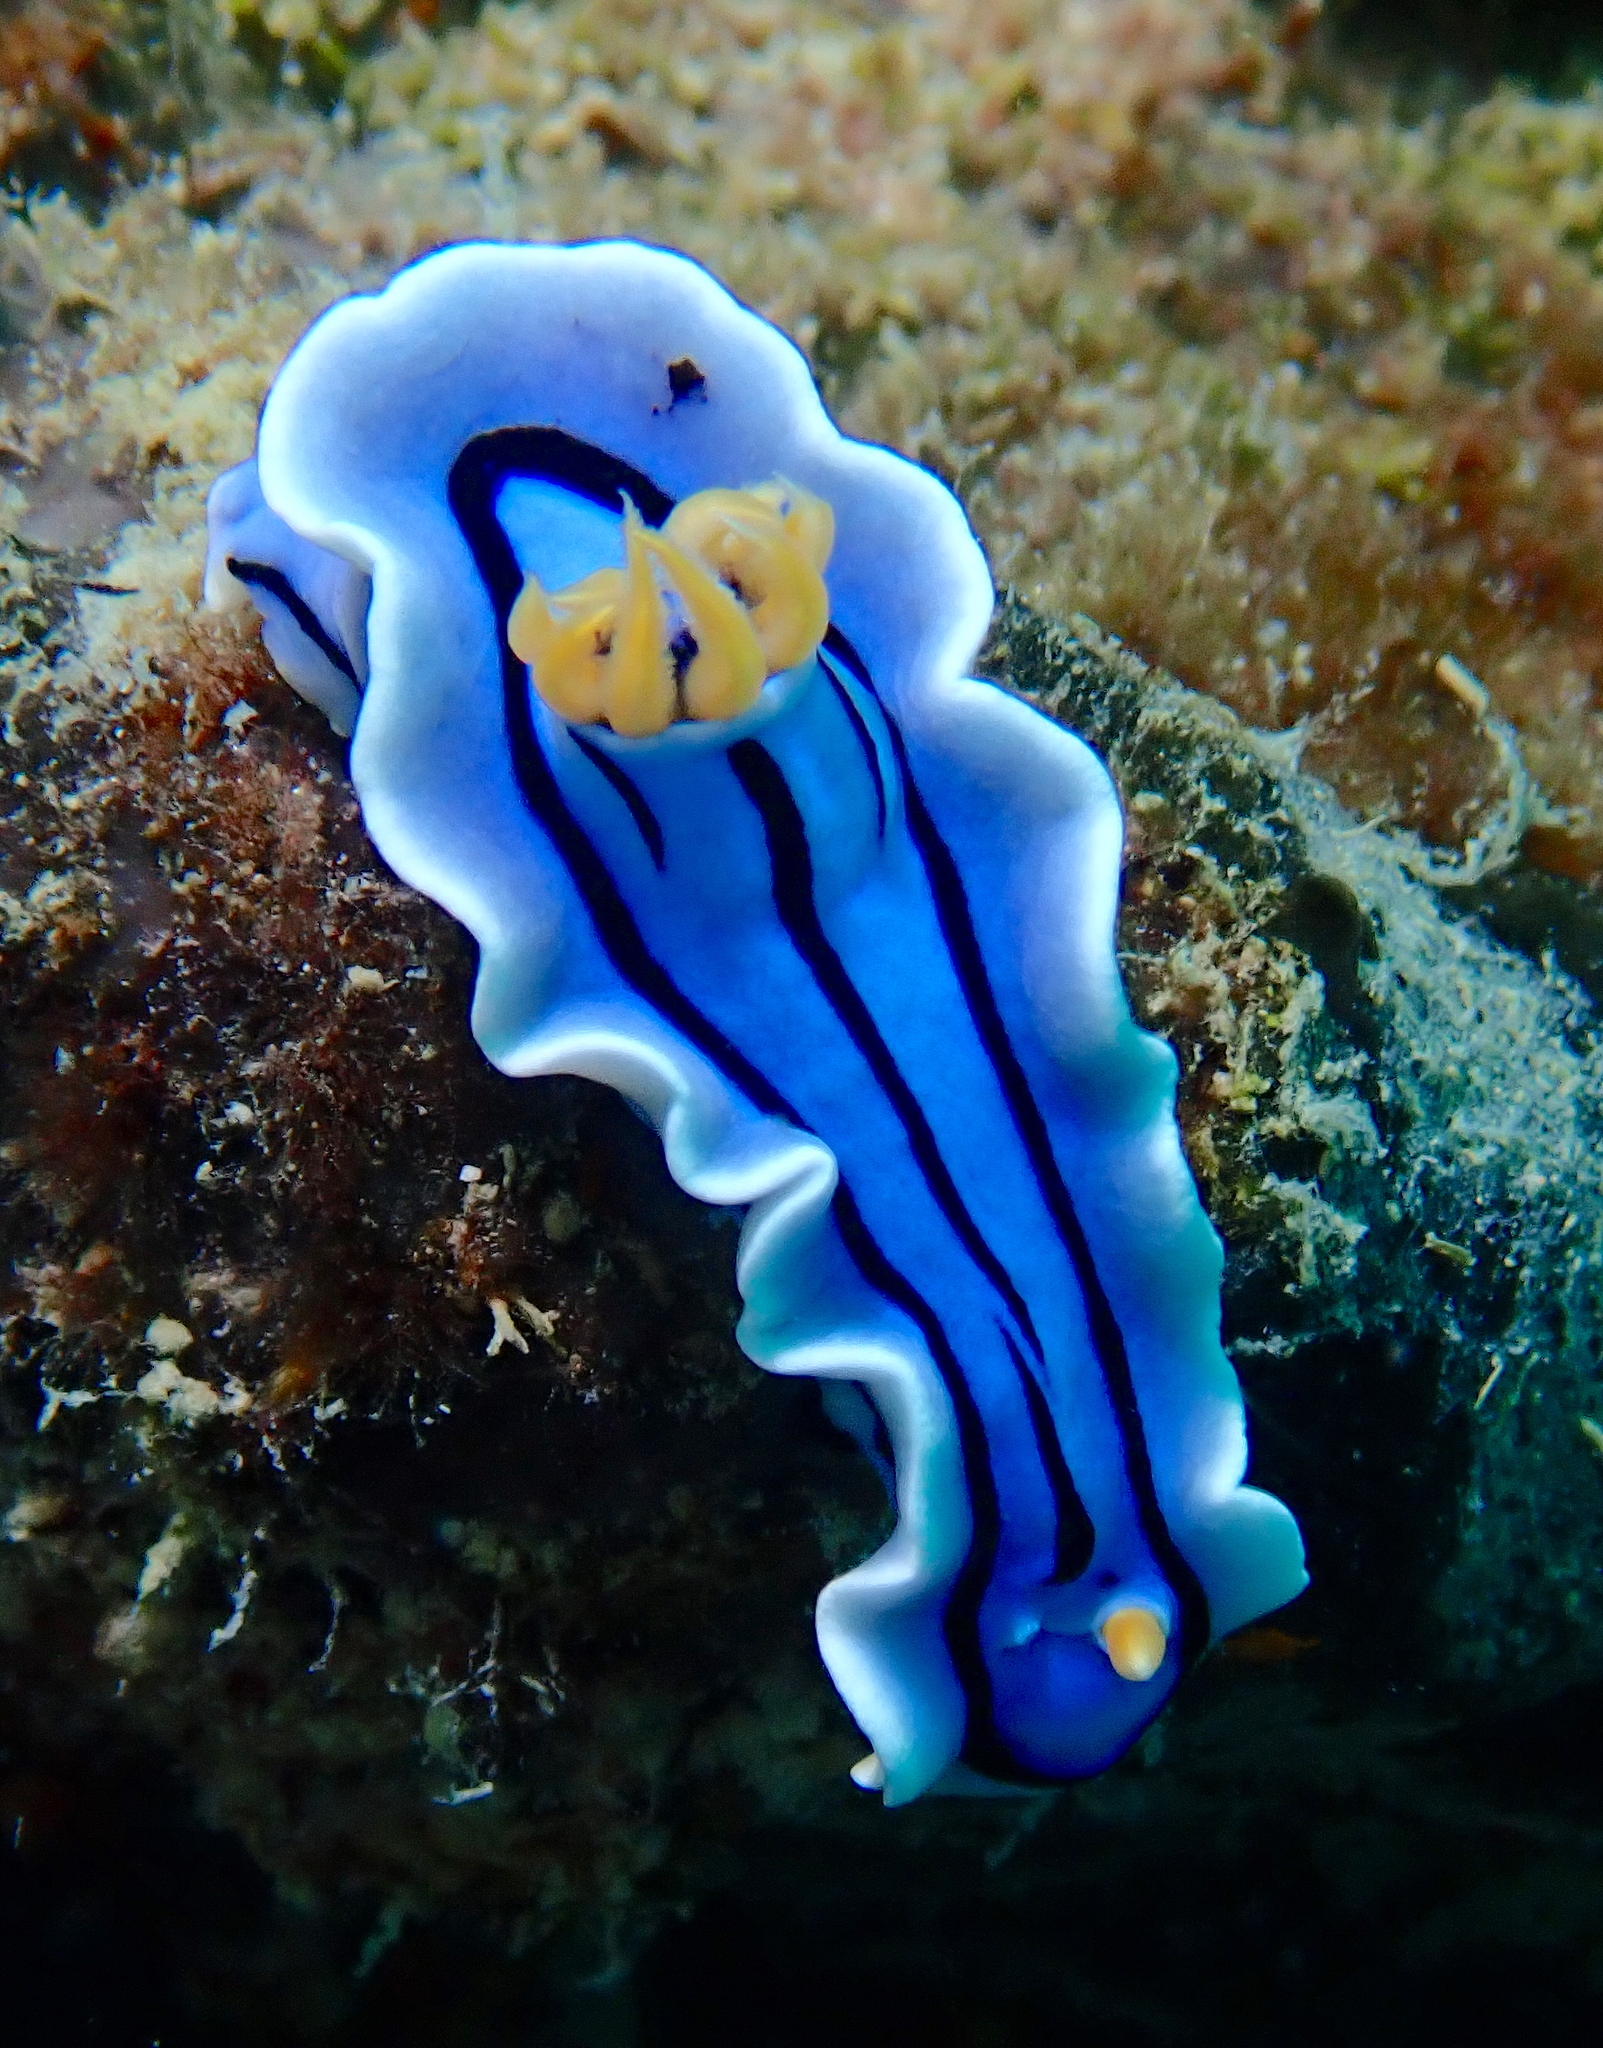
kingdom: Animalia
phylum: Mollusca
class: Gastropoda
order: Nudibranchia
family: Chromodorididae
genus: Chromodoris
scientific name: Chromodoris lochi
